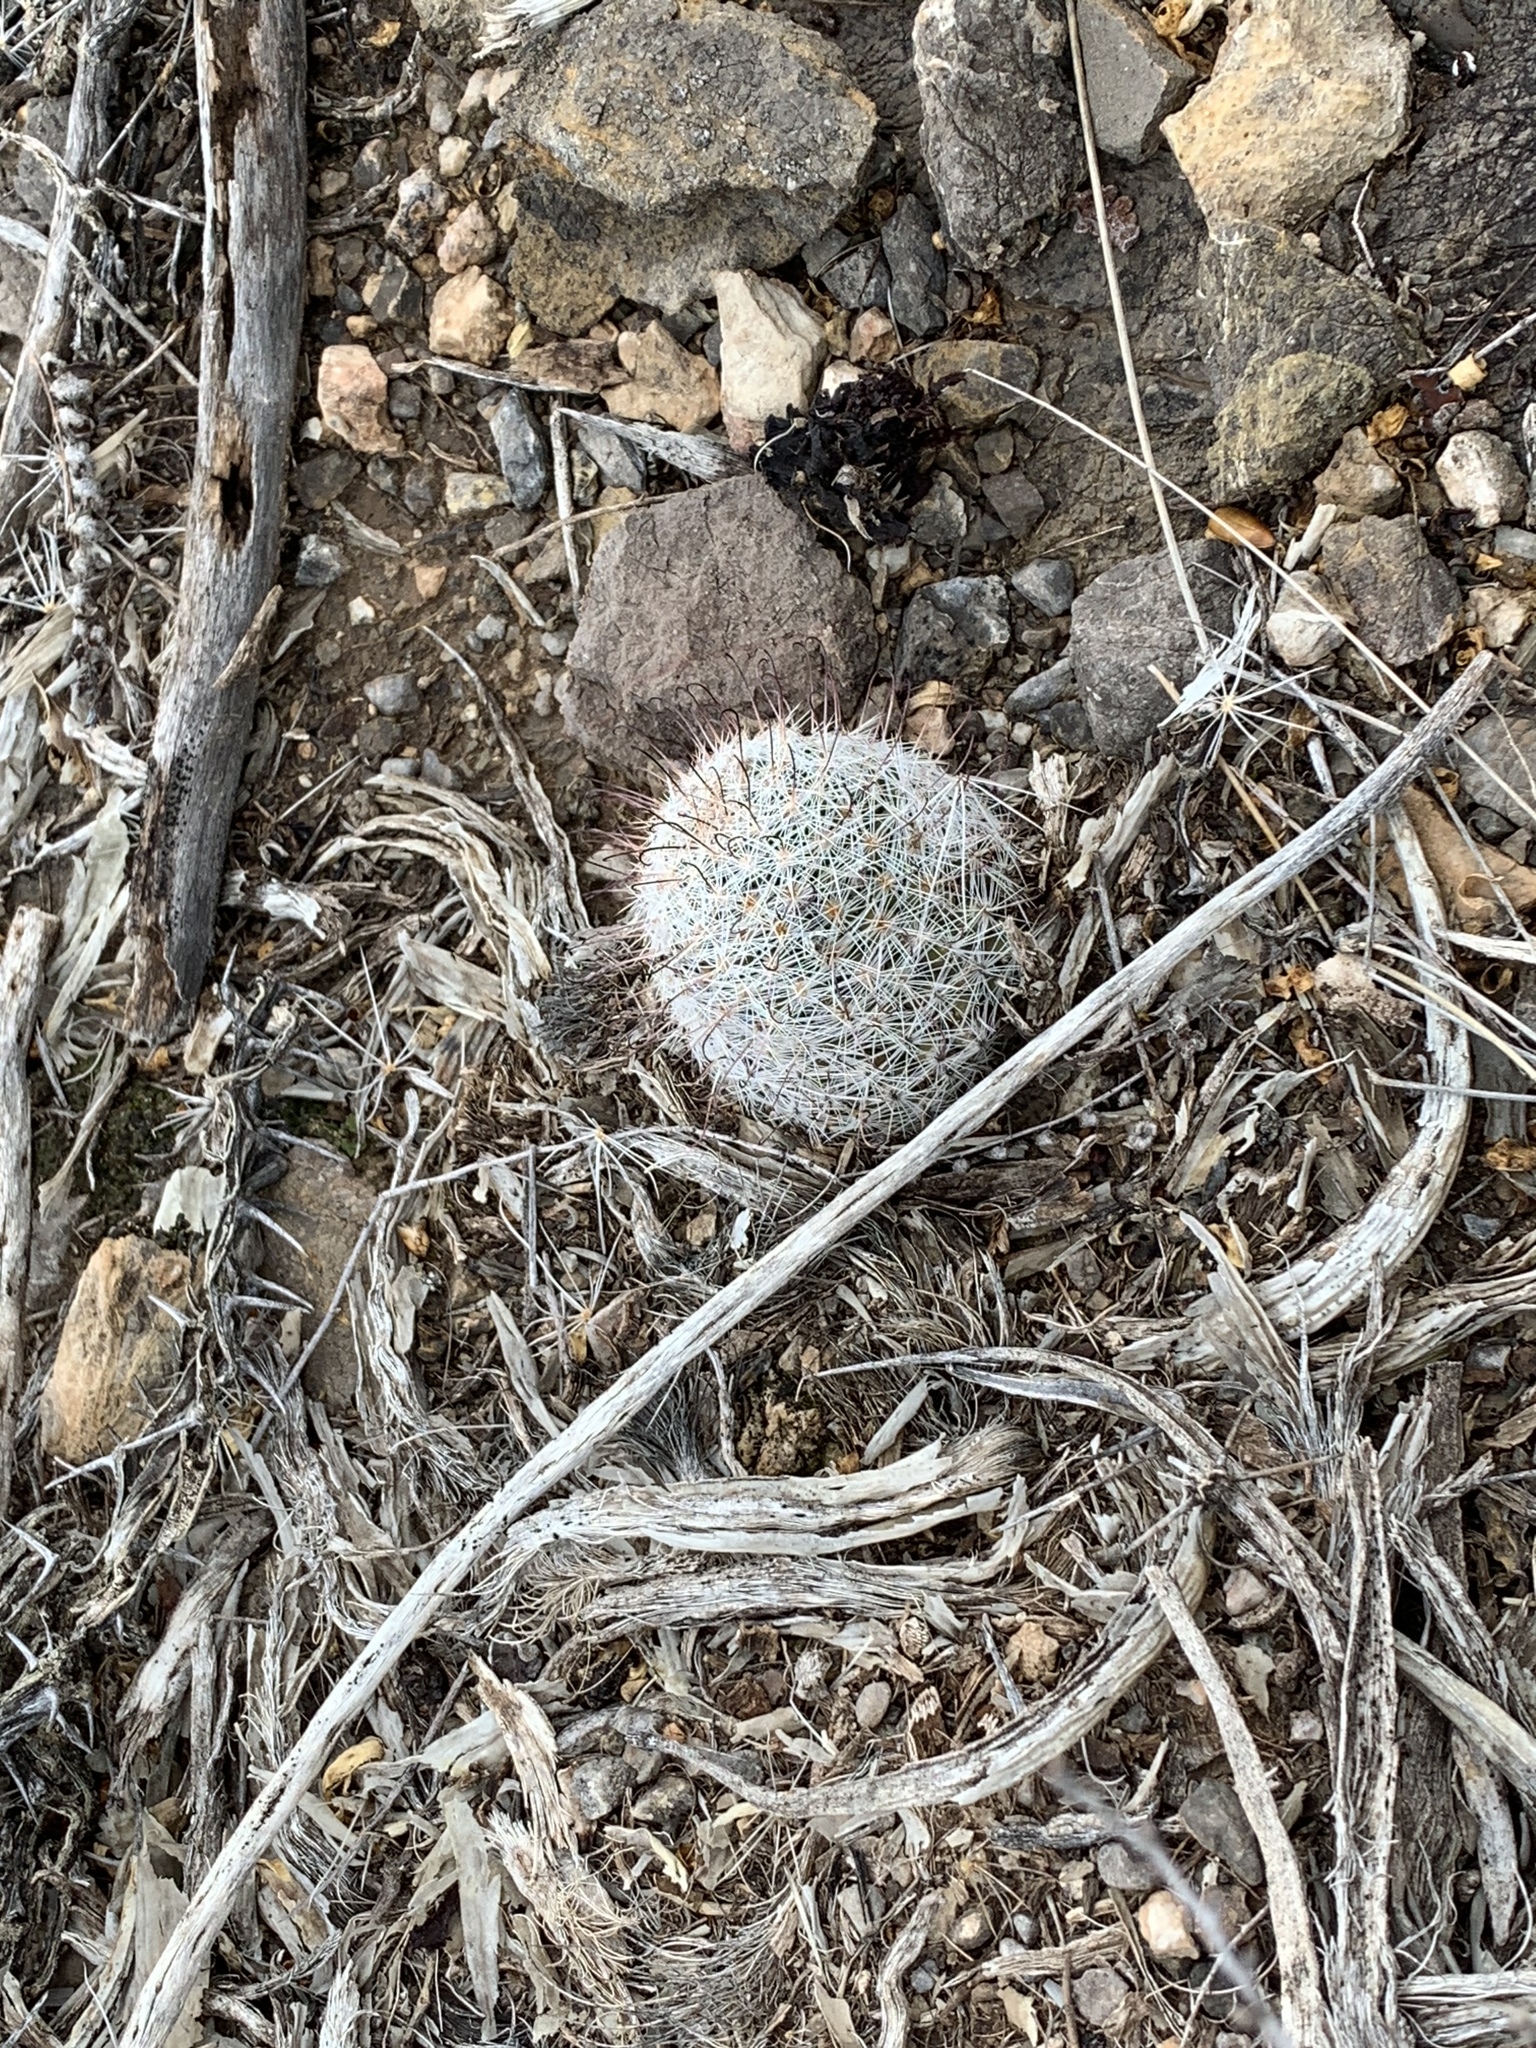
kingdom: Plantae
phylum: Tracheophyta
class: Magnoliopsida
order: Caryophyllales
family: Cactaceae
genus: Cochemiea
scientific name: Cochemiea grahamii
